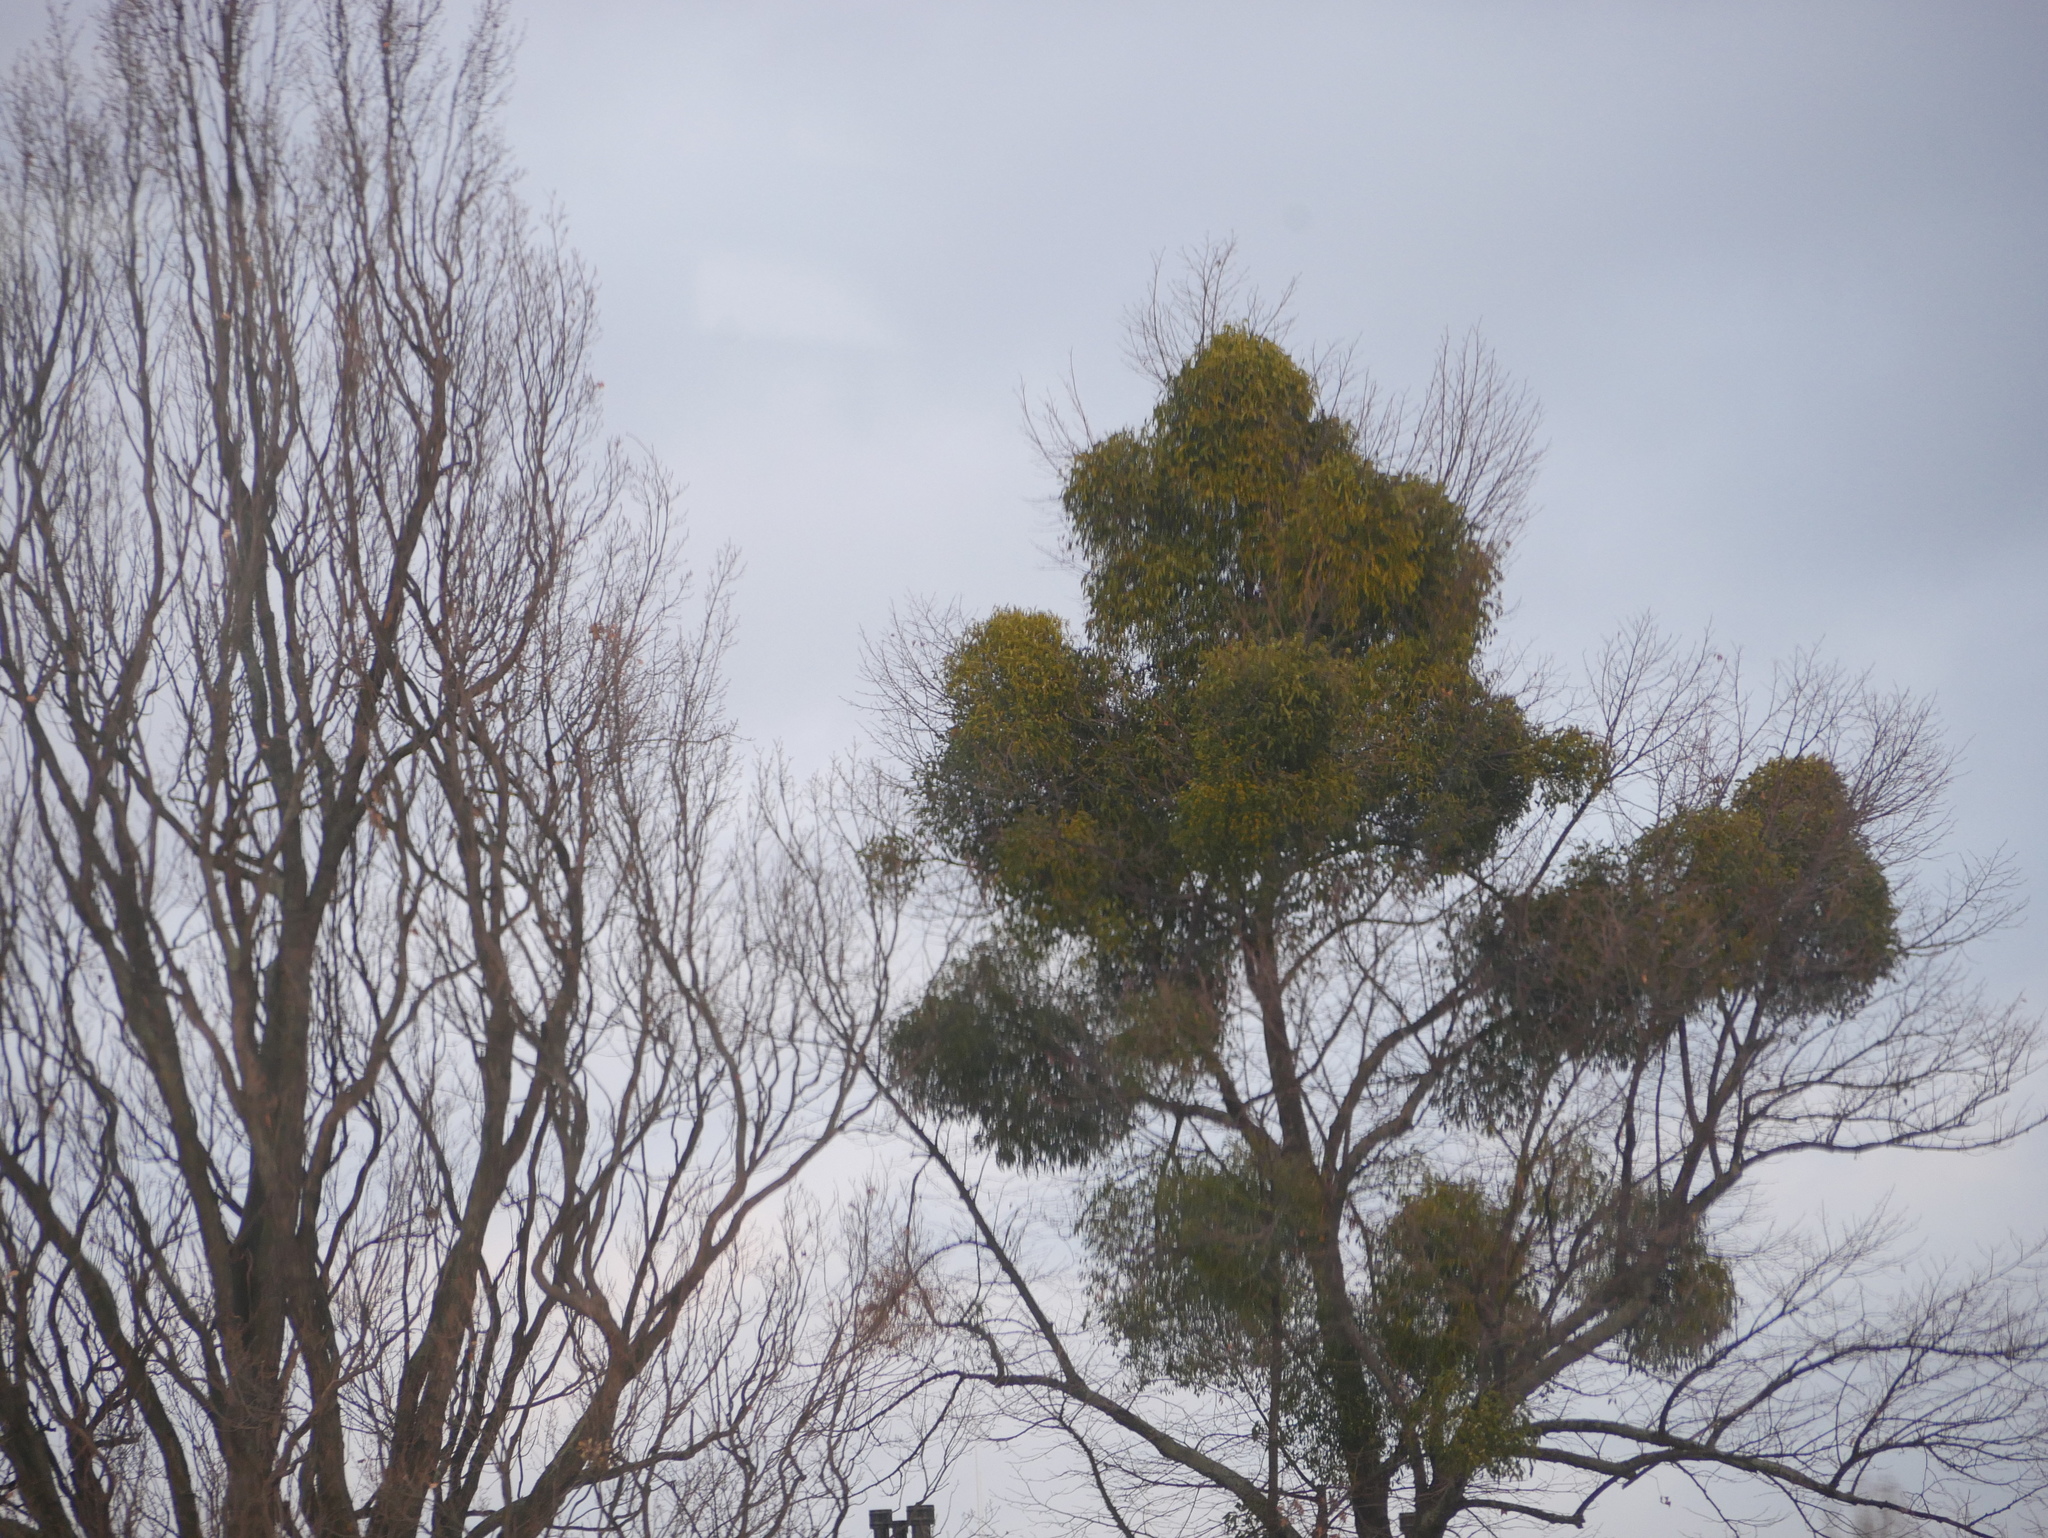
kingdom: Plantae
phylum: Tracheophyta
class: Magnoliopsida
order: Santalales
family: Viscaceae
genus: Viscum
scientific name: Viscum album
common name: Mistletoe
